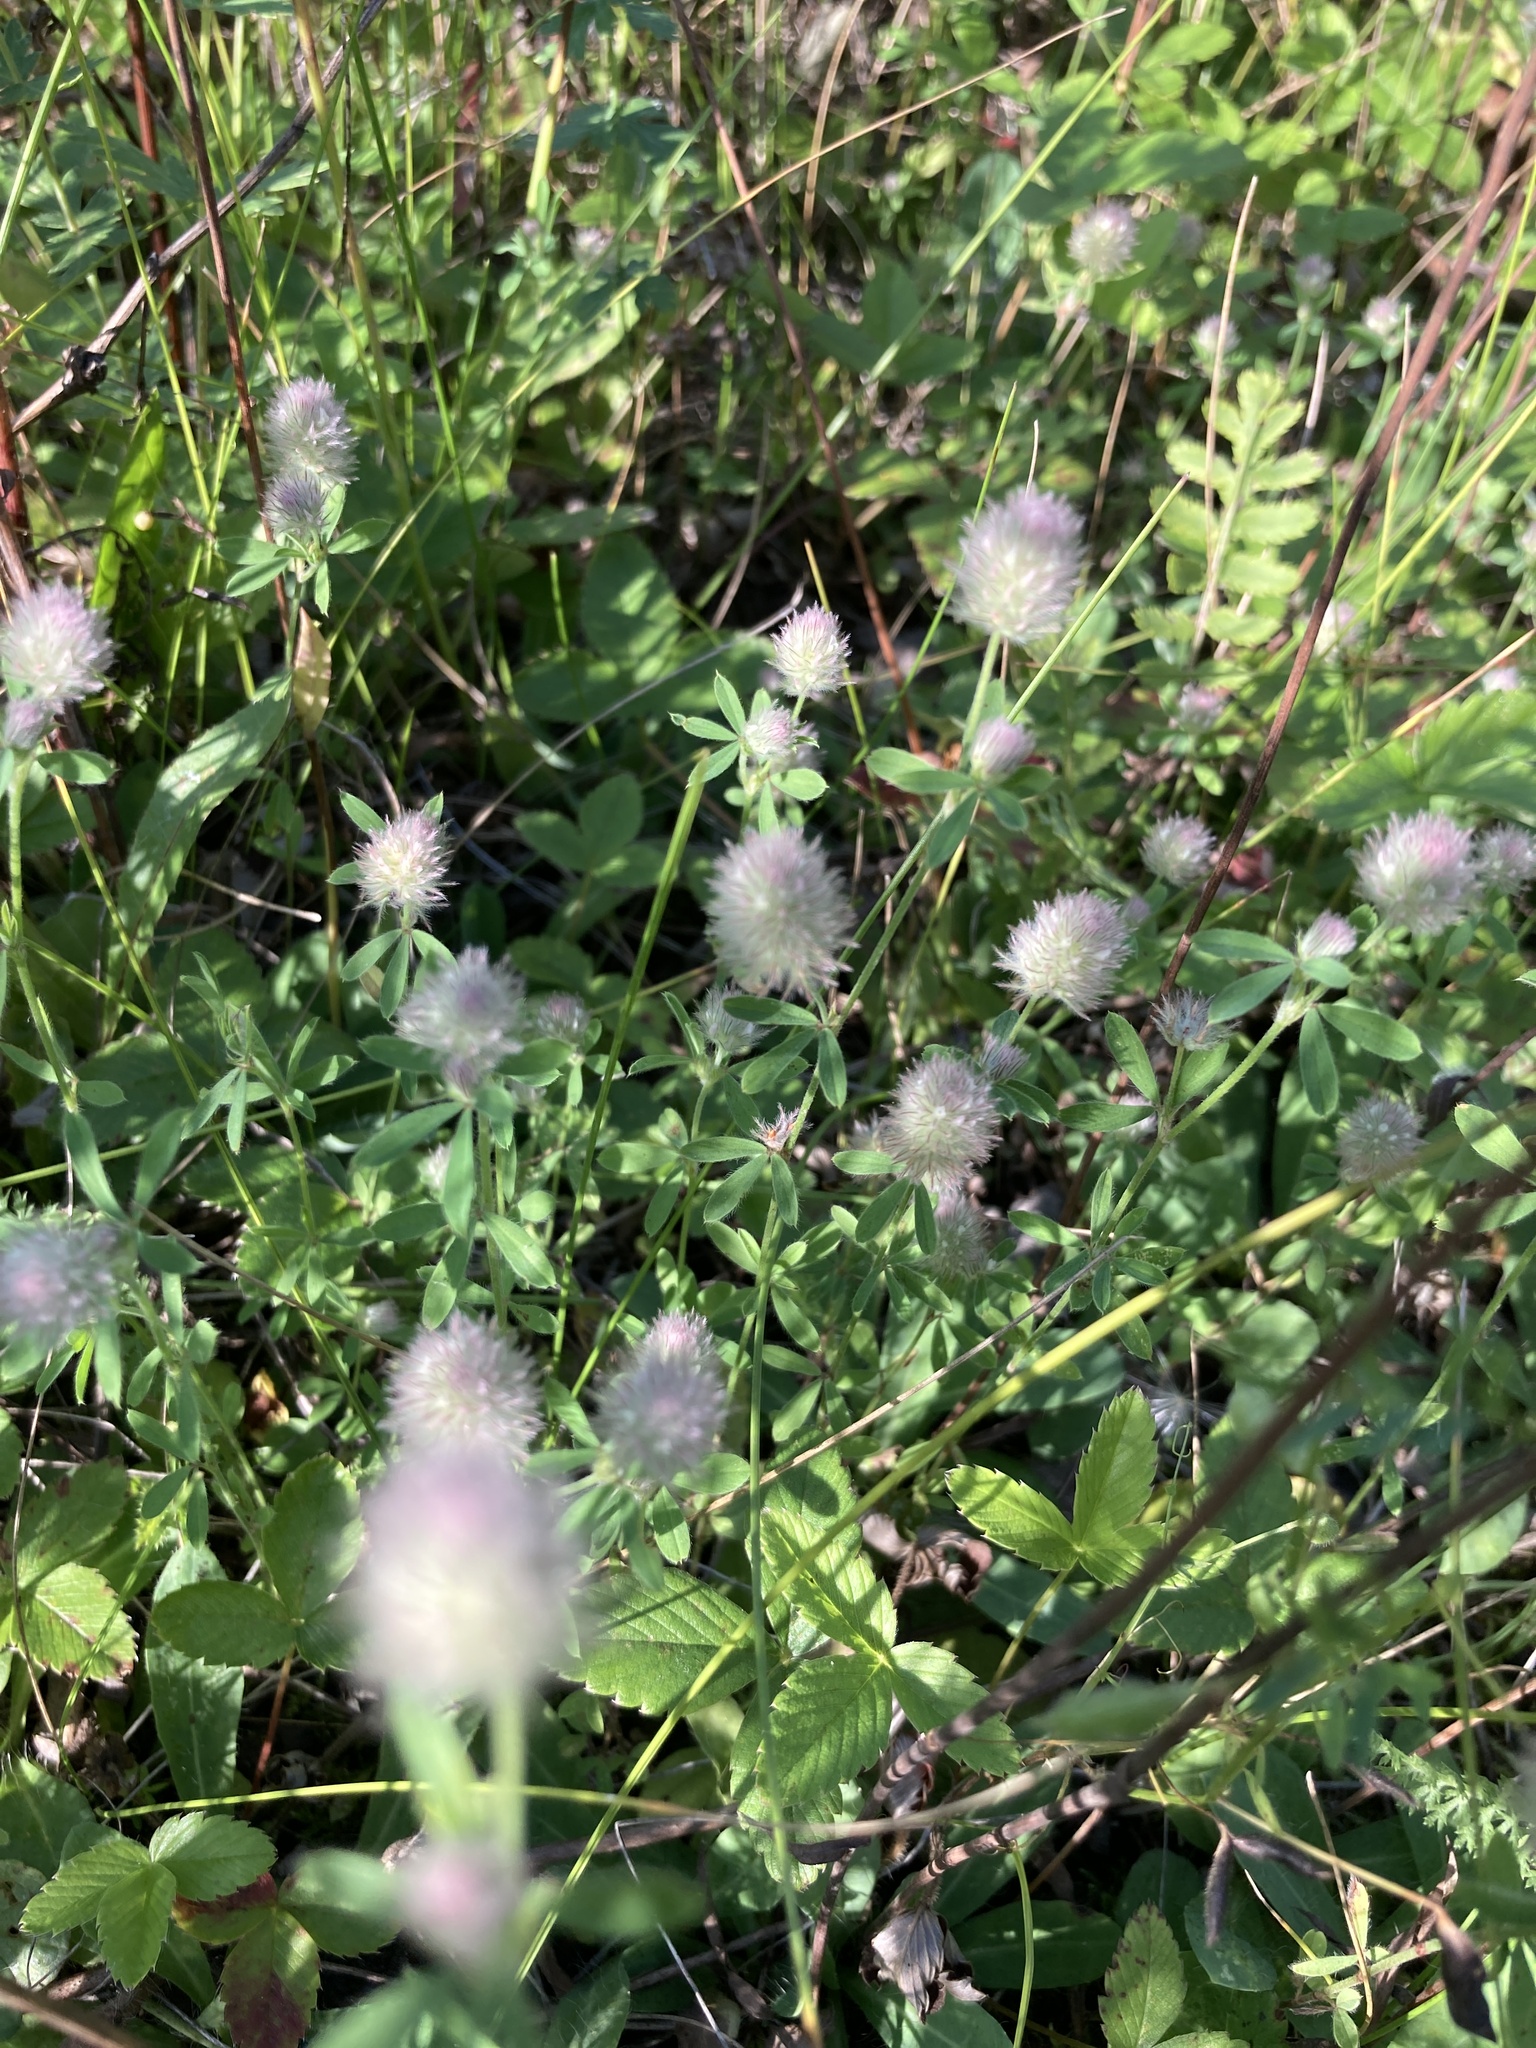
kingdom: Plantae
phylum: Tracheophyta
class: Magnoliopsida
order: Fabales
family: Fabaceae
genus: Trifolium
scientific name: Trifolium arvense
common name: Hare's-foot clover
